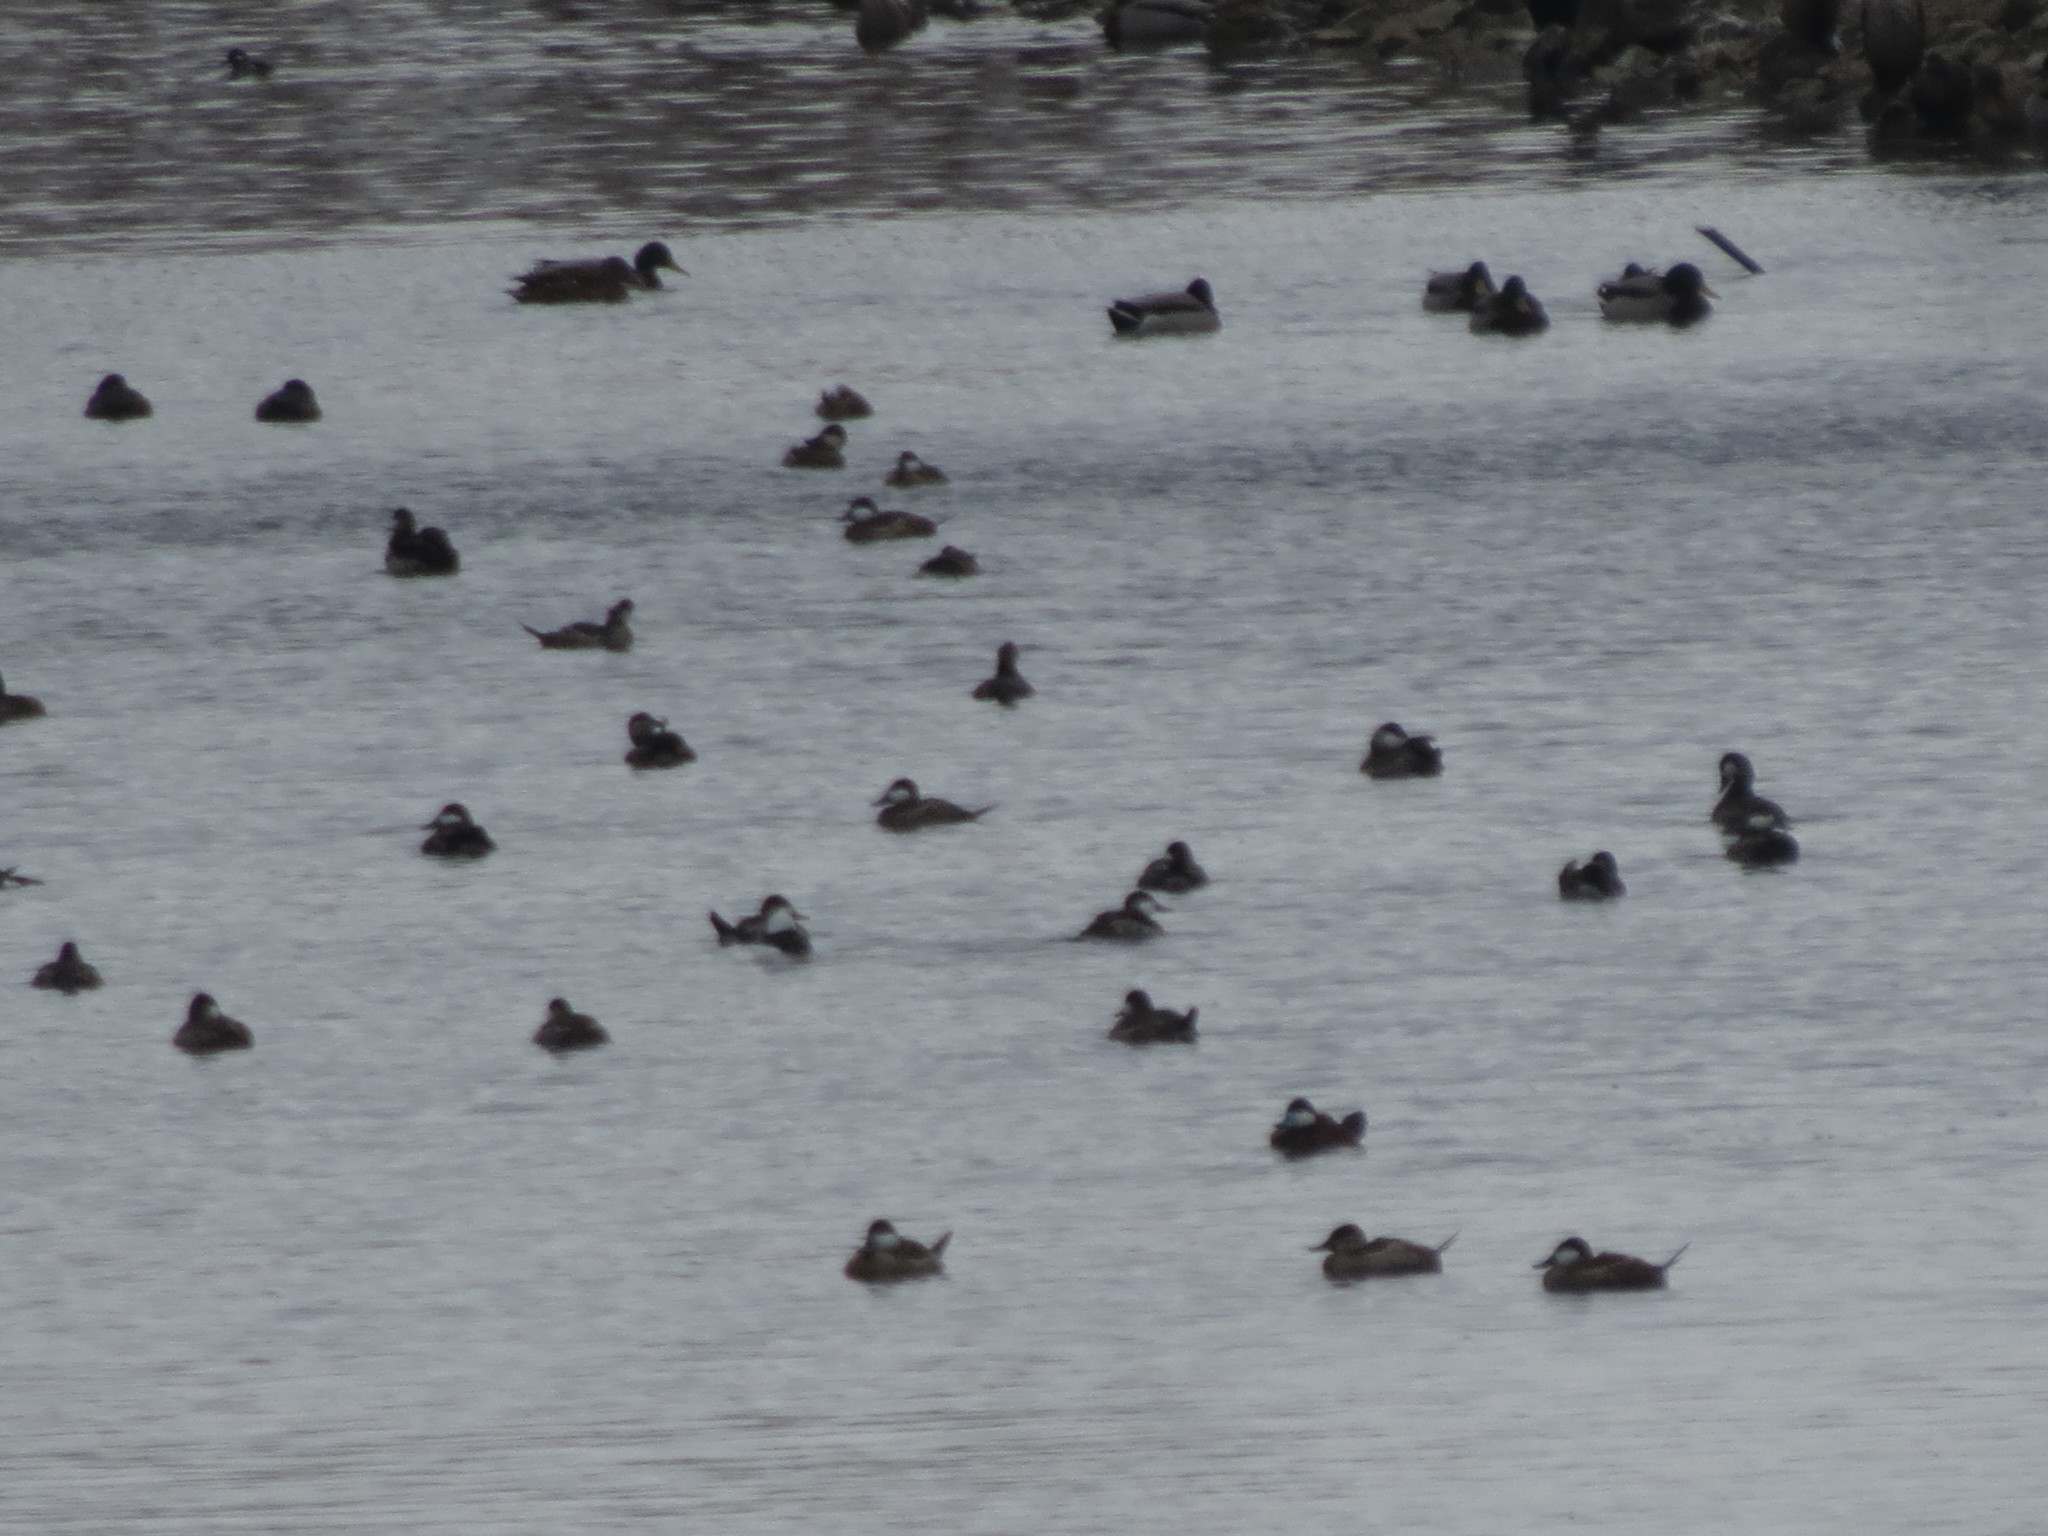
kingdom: Animalia
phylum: Chordata
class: Aves
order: Anseriformes
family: Anatidae
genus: Oxyura
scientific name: Oxyura jamaicensis
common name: Ruddy duck
